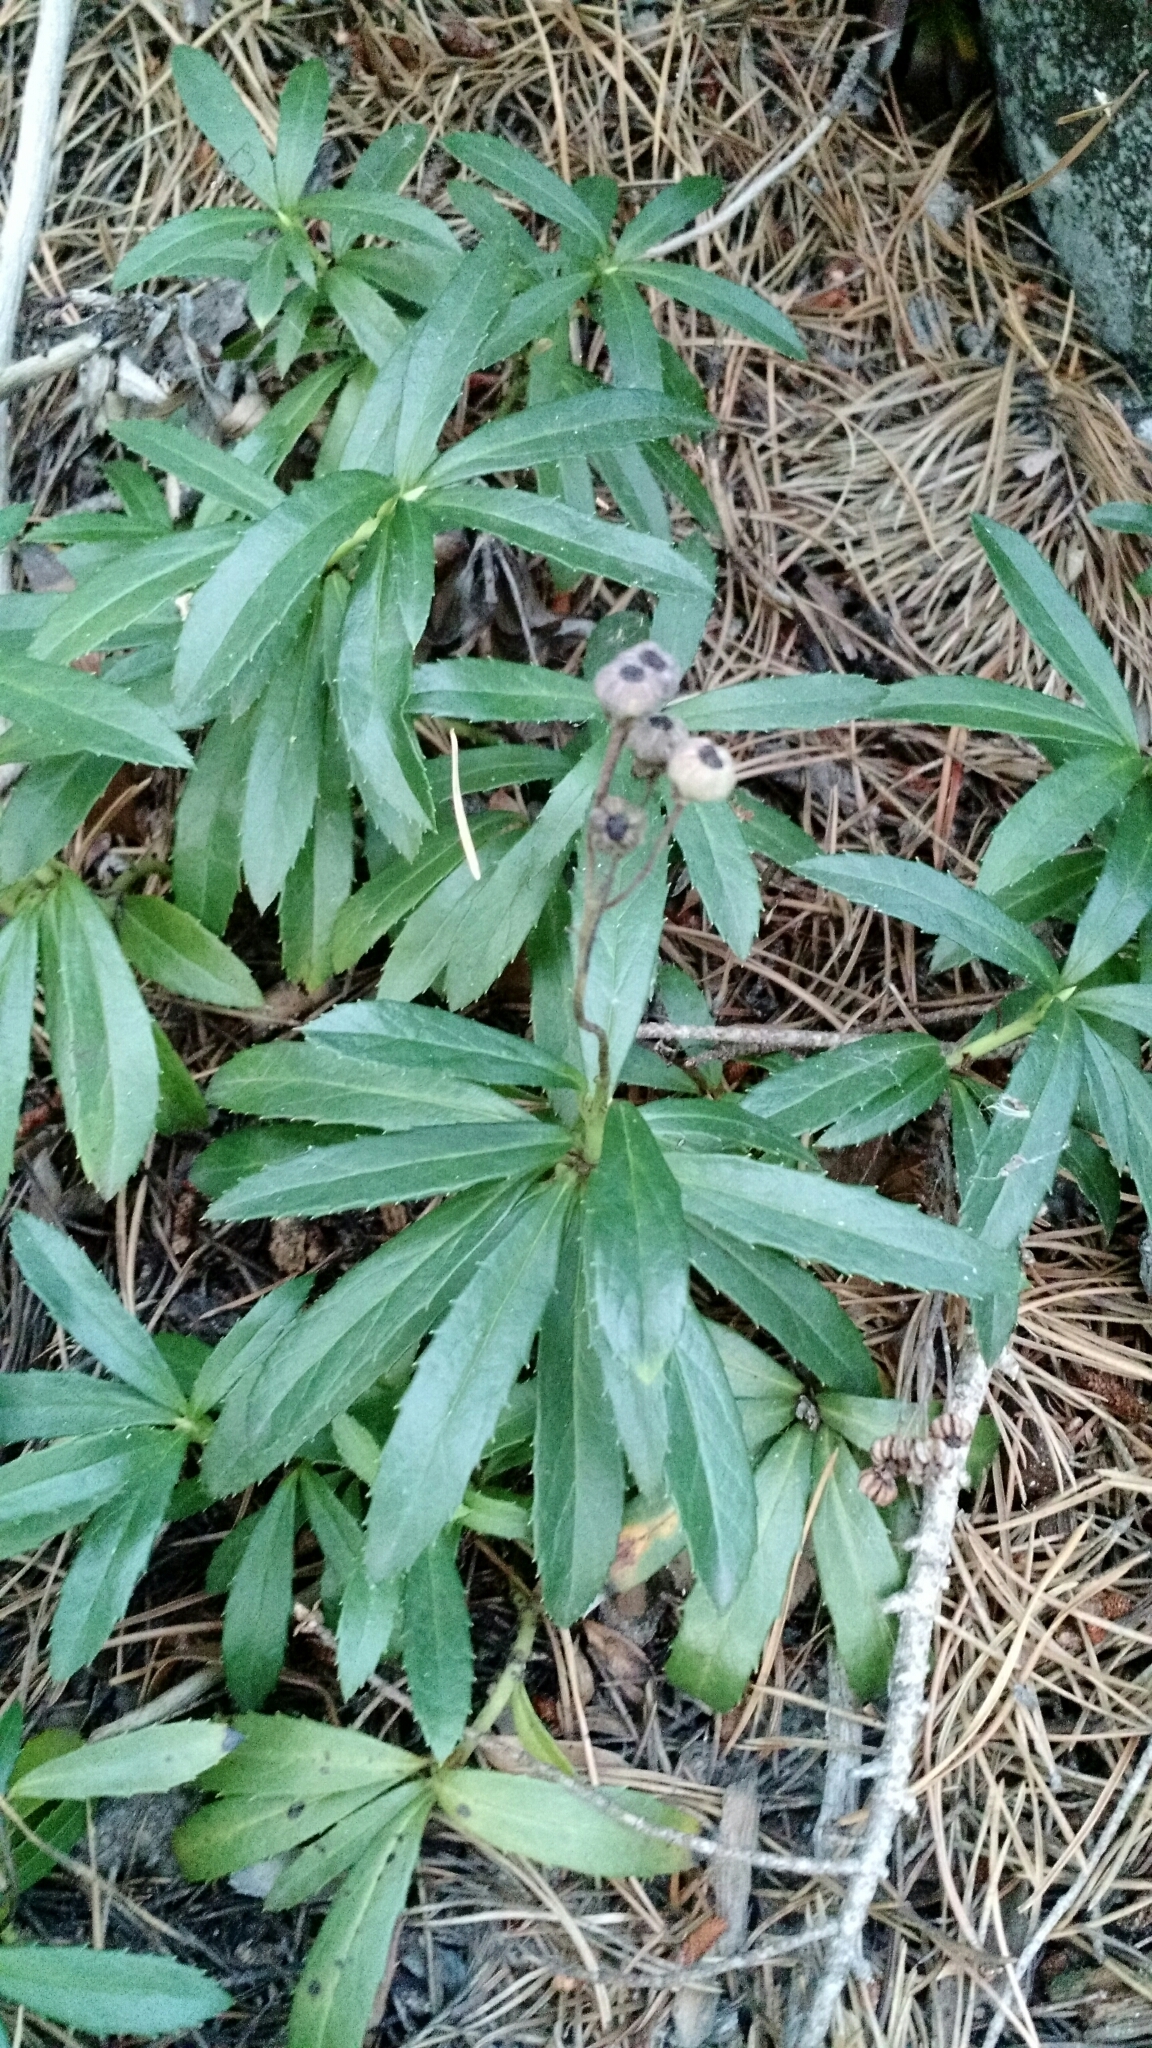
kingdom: Plantae
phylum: Tracheophyta
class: Magnoliopsida
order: Ericales
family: Ericaceae
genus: Chimaphila
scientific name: Chimaphila umbellata
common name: Pipsissewa
